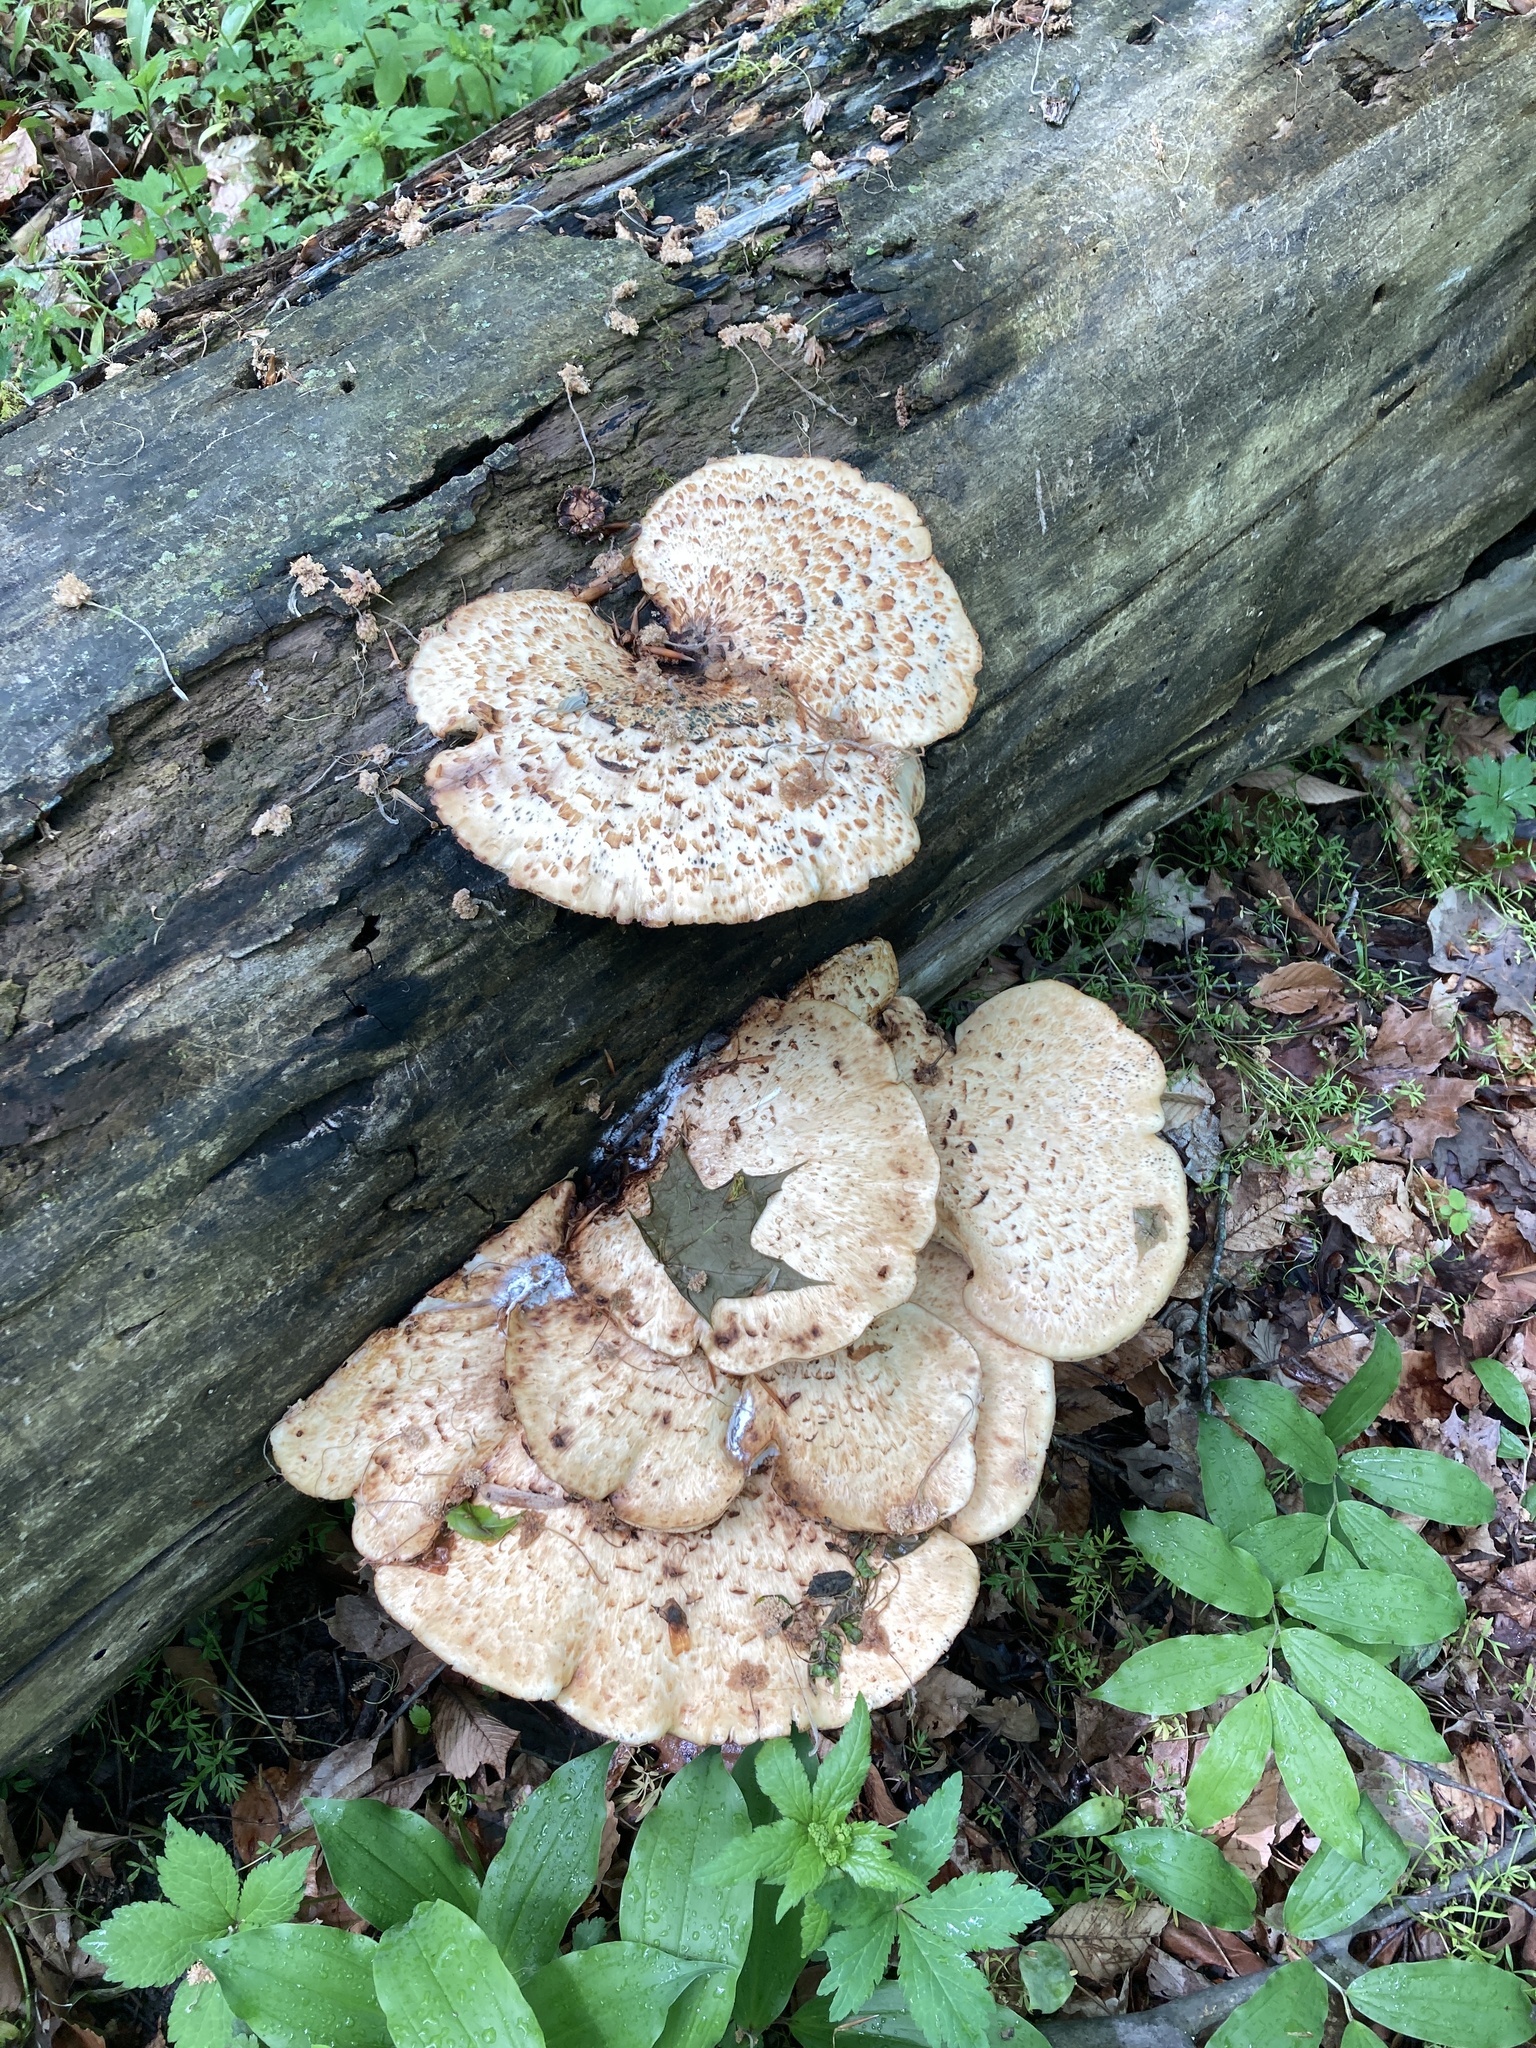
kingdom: Fungi
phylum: Basidiomycota
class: Agaricomycetes
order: Polyporales
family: Polyporaceae
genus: Cerioporus
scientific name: Cerioporus squamosus
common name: Dryad's saddle
